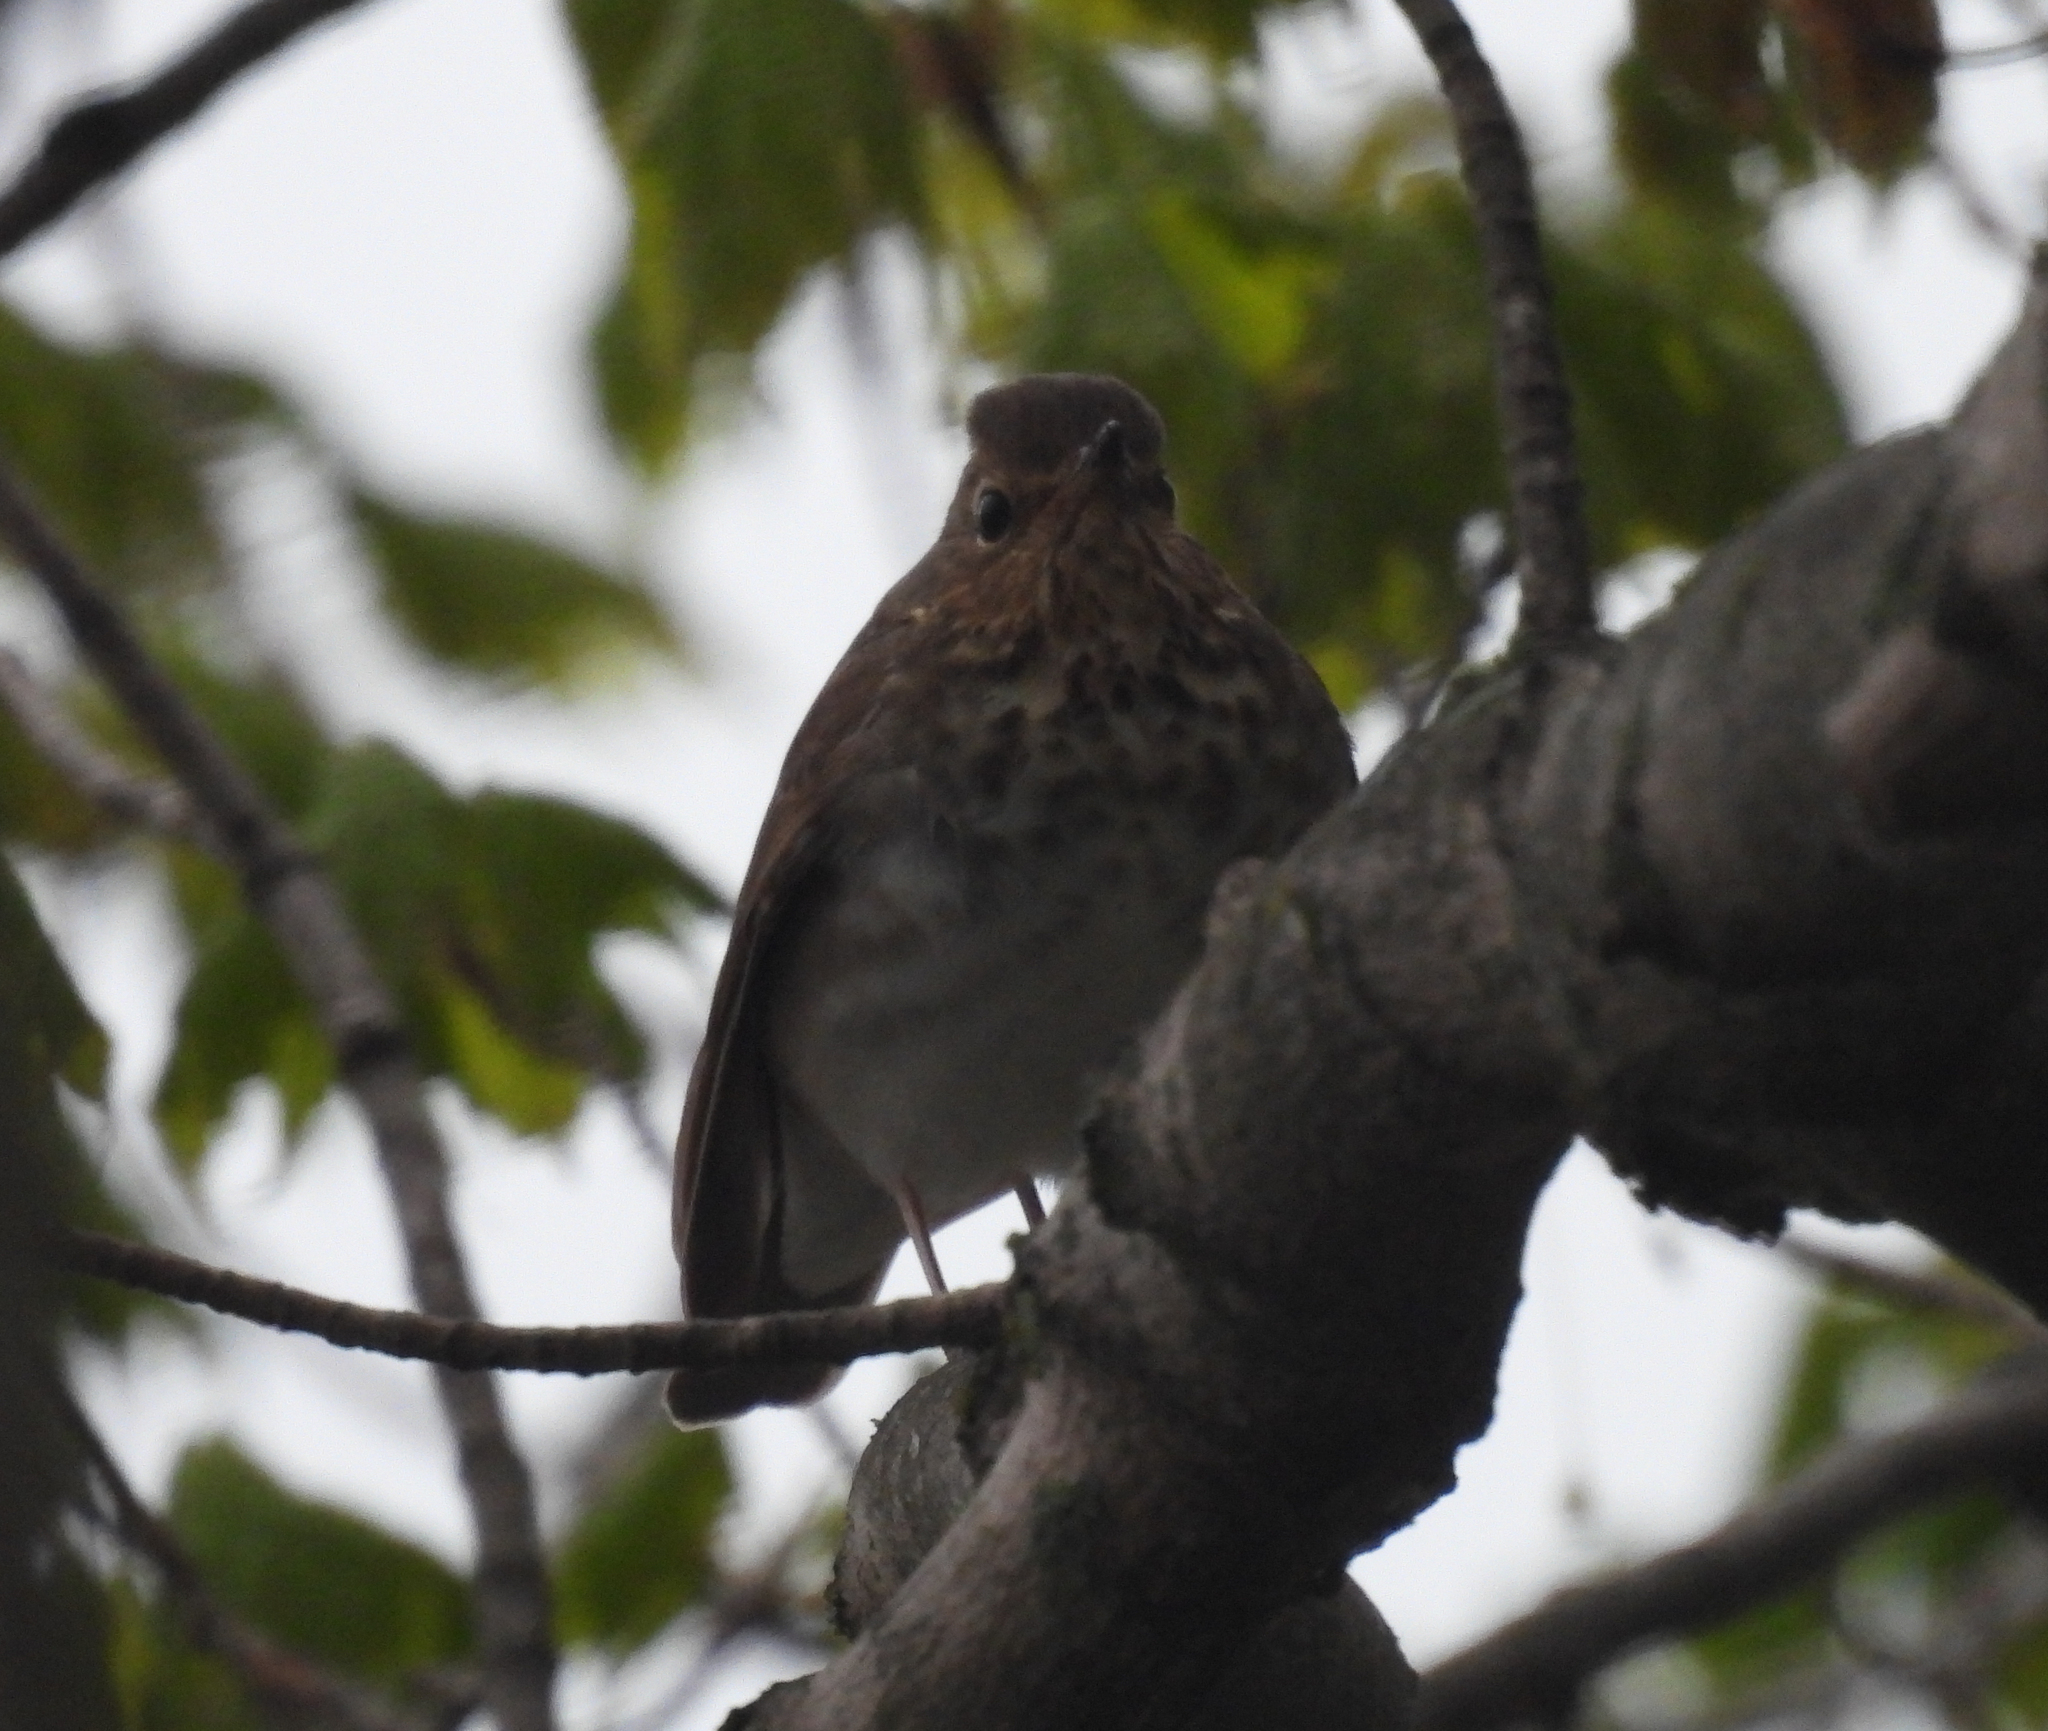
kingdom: Animalia
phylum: Chordata
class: Aves
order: Passeriformes
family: Turdidae
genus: Catharus
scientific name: Catharus ustulatus
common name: Swainson's thrush
